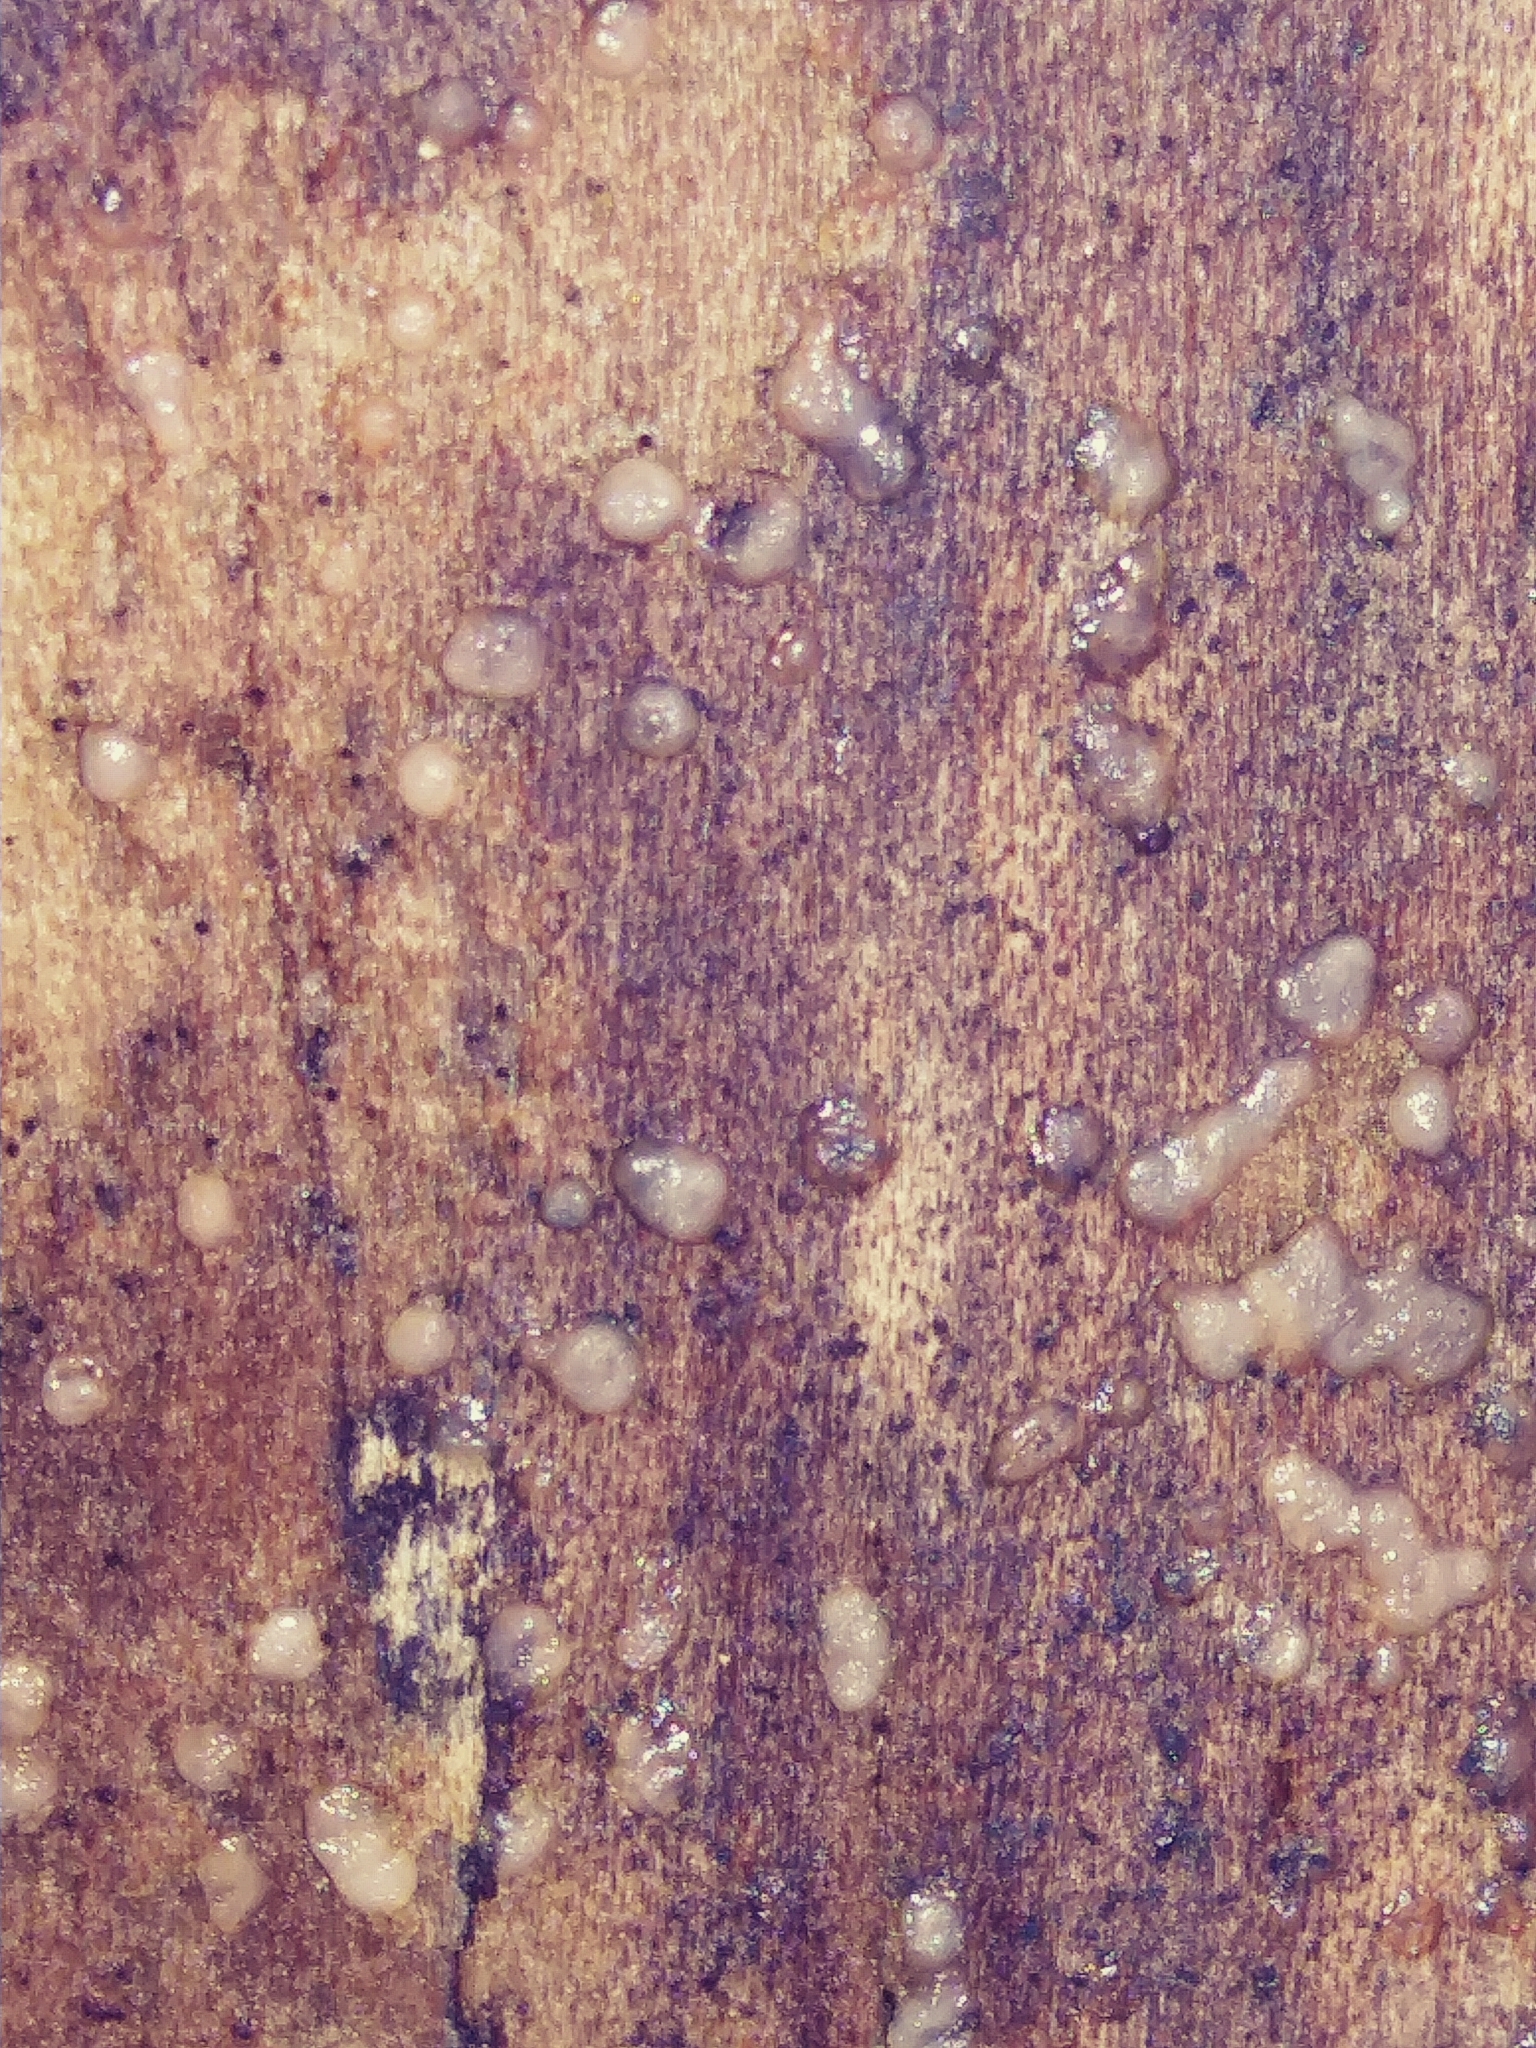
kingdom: Fungi
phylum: Basidiomycota
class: Atractiellomycetes
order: Atractiellales
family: Phleogenaceae
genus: Helicogloea
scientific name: Helicogloea compressa
